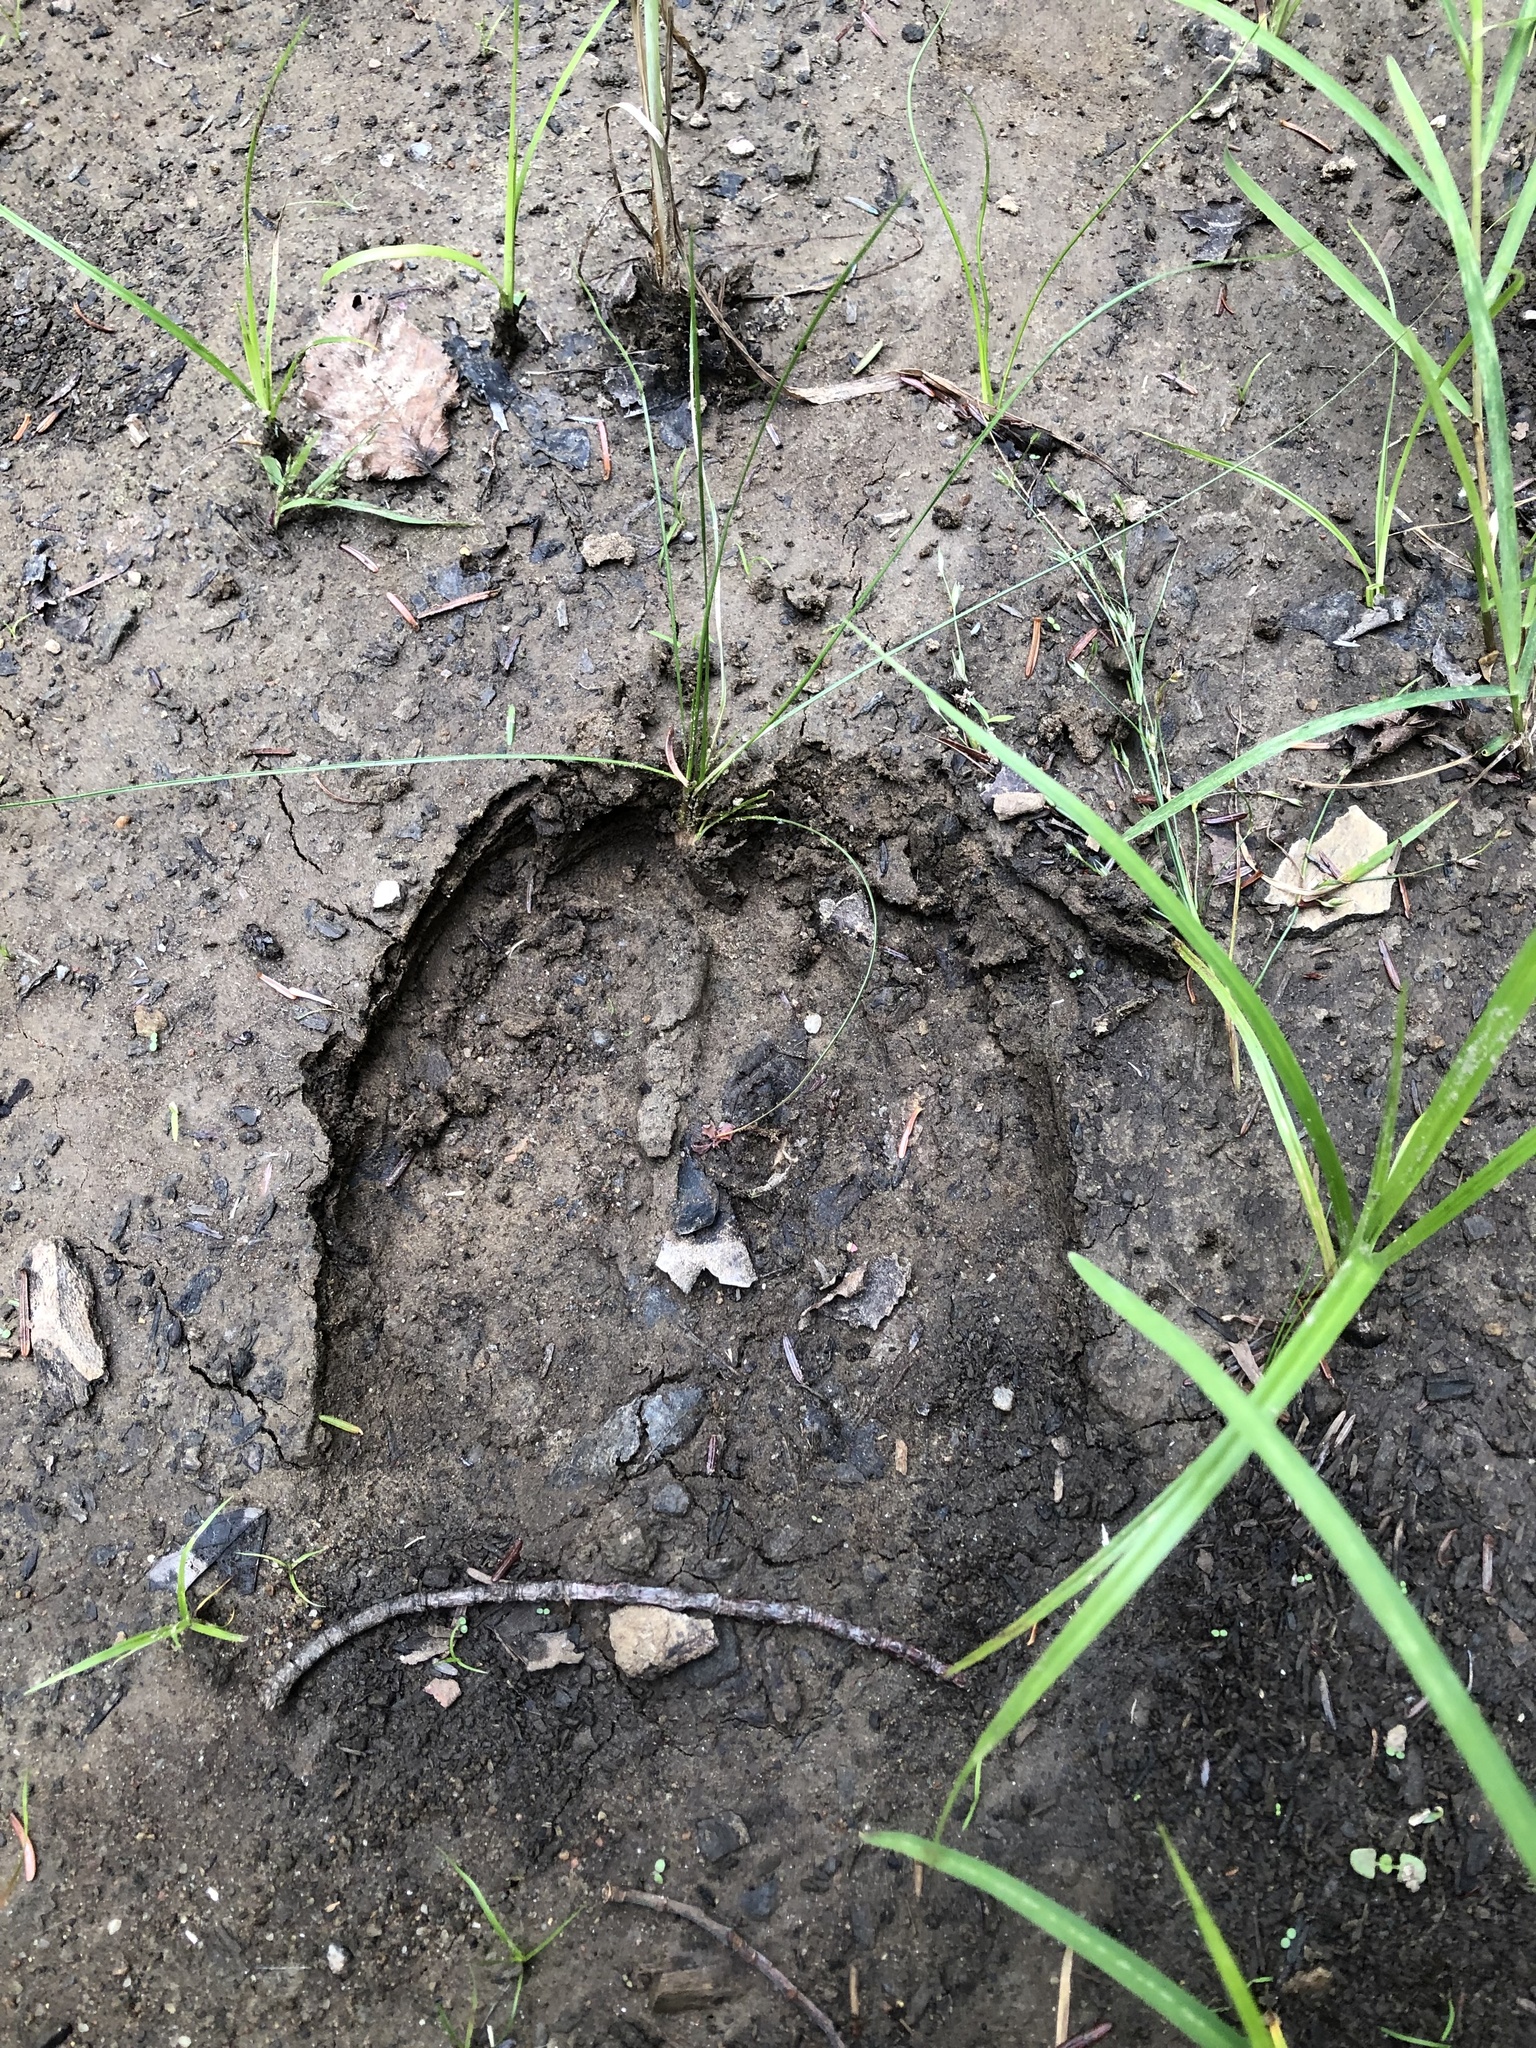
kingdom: Animalia
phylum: Chordata
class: Mammalia
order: Artiodactyla
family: Cervidae
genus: Alces
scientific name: Alces alces
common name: Moose
